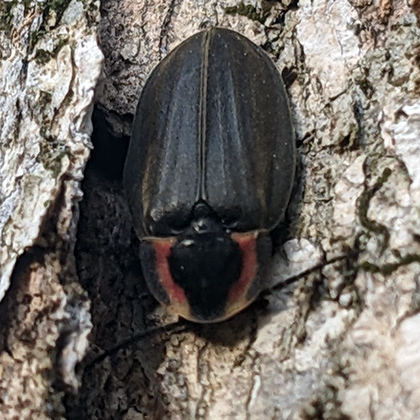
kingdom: Animalia
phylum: Arthropoda
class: Insecta
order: Coleoptera
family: Lampyridae
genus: Photinus
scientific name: Photinus corrusca
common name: Winter firefly
